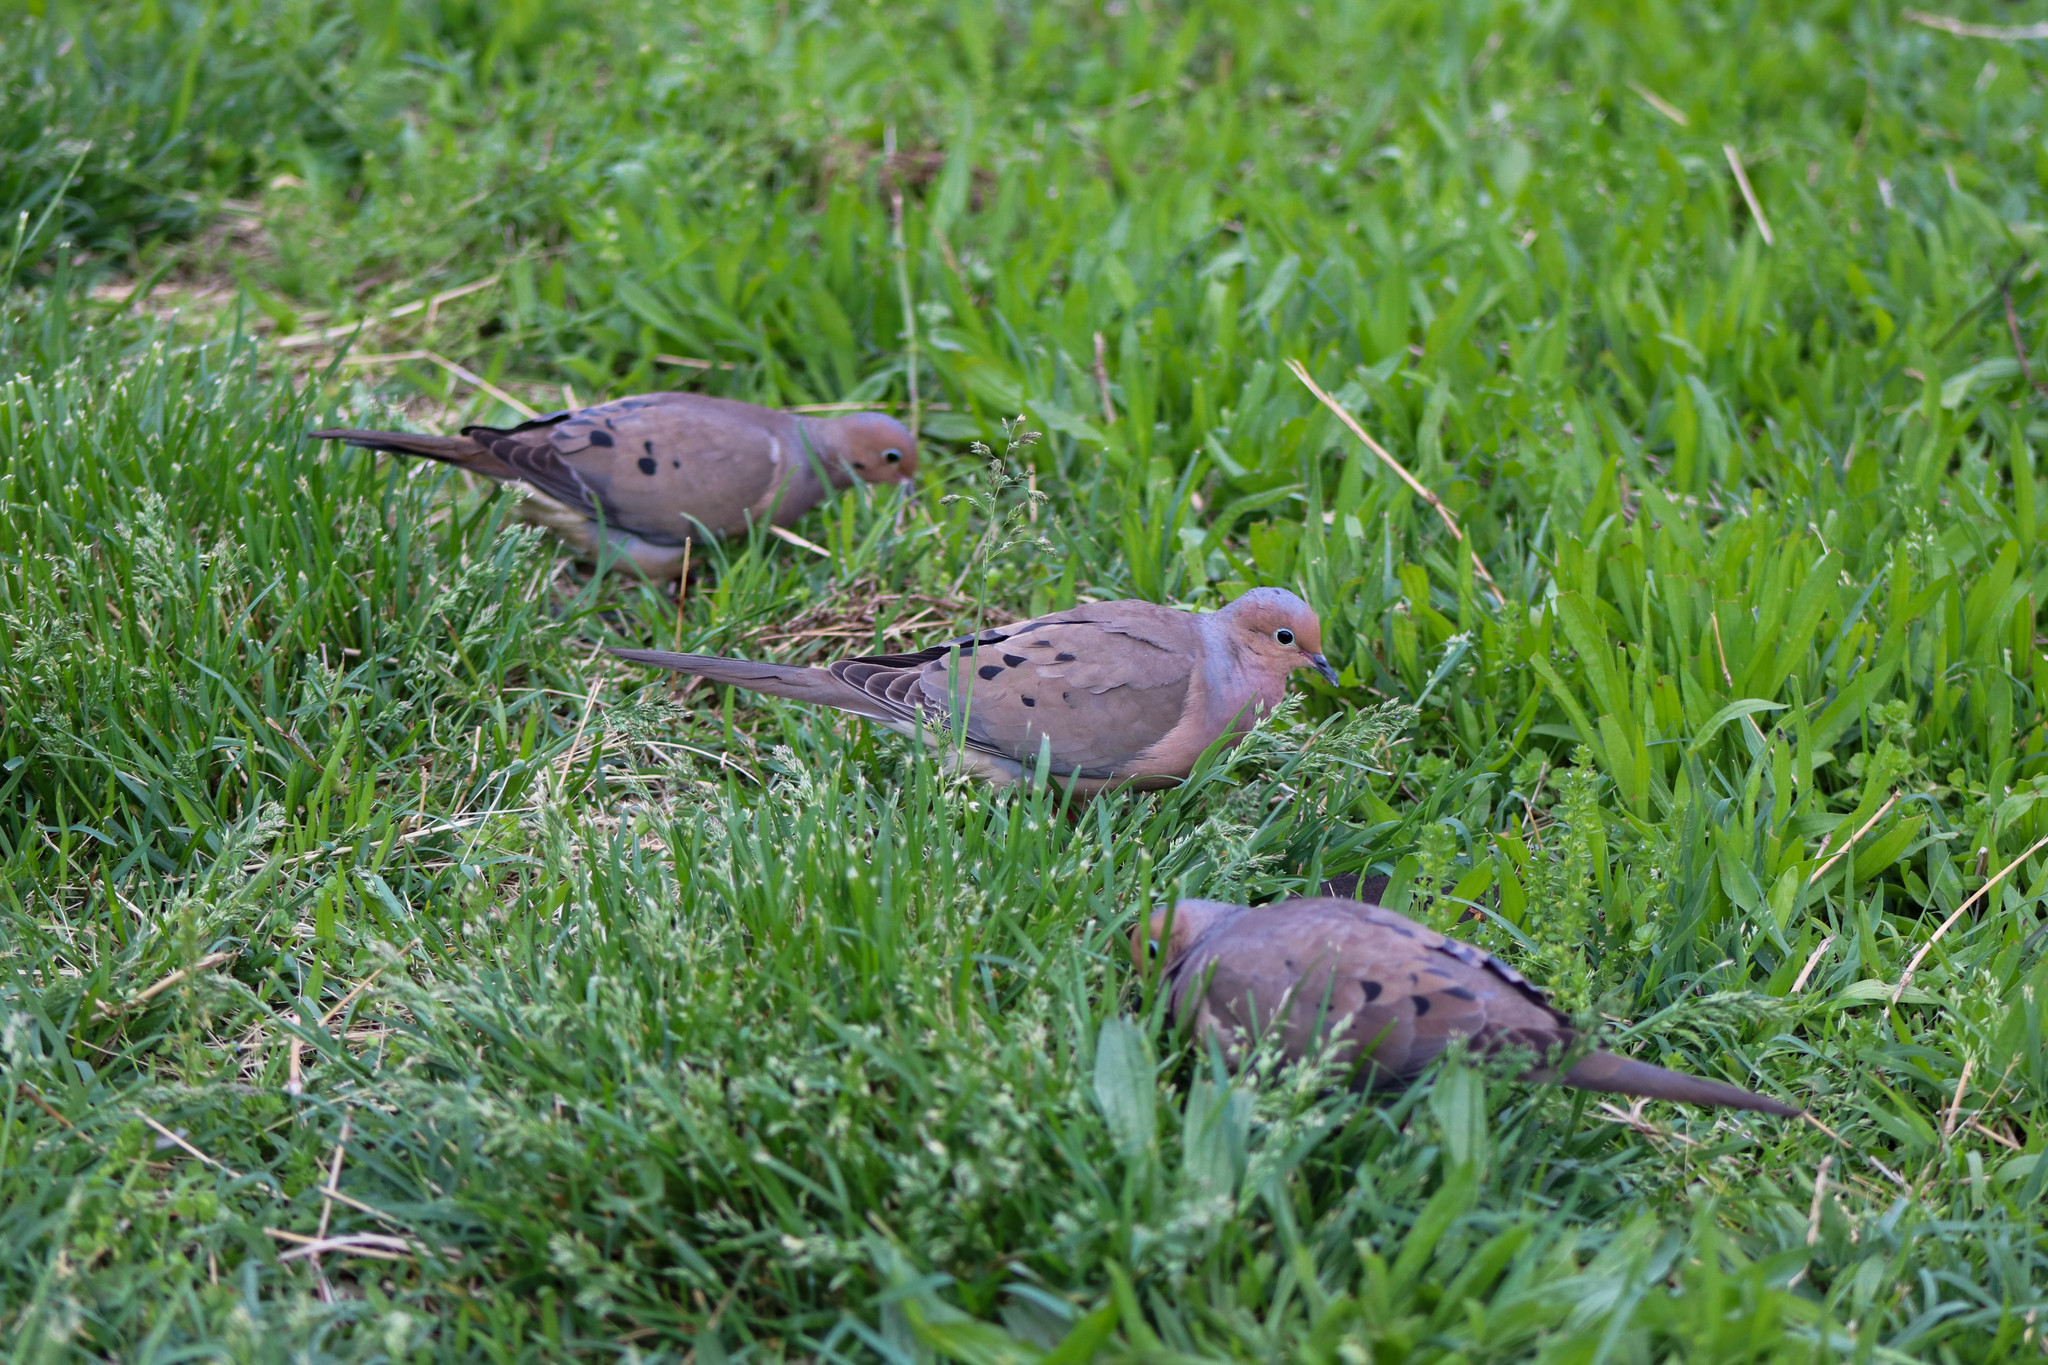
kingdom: Animalia
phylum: Chordata
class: Aves
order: Columbiformes
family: Columbidae
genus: Zenaida
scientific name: Zenaida macroura
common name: Mourning dove
